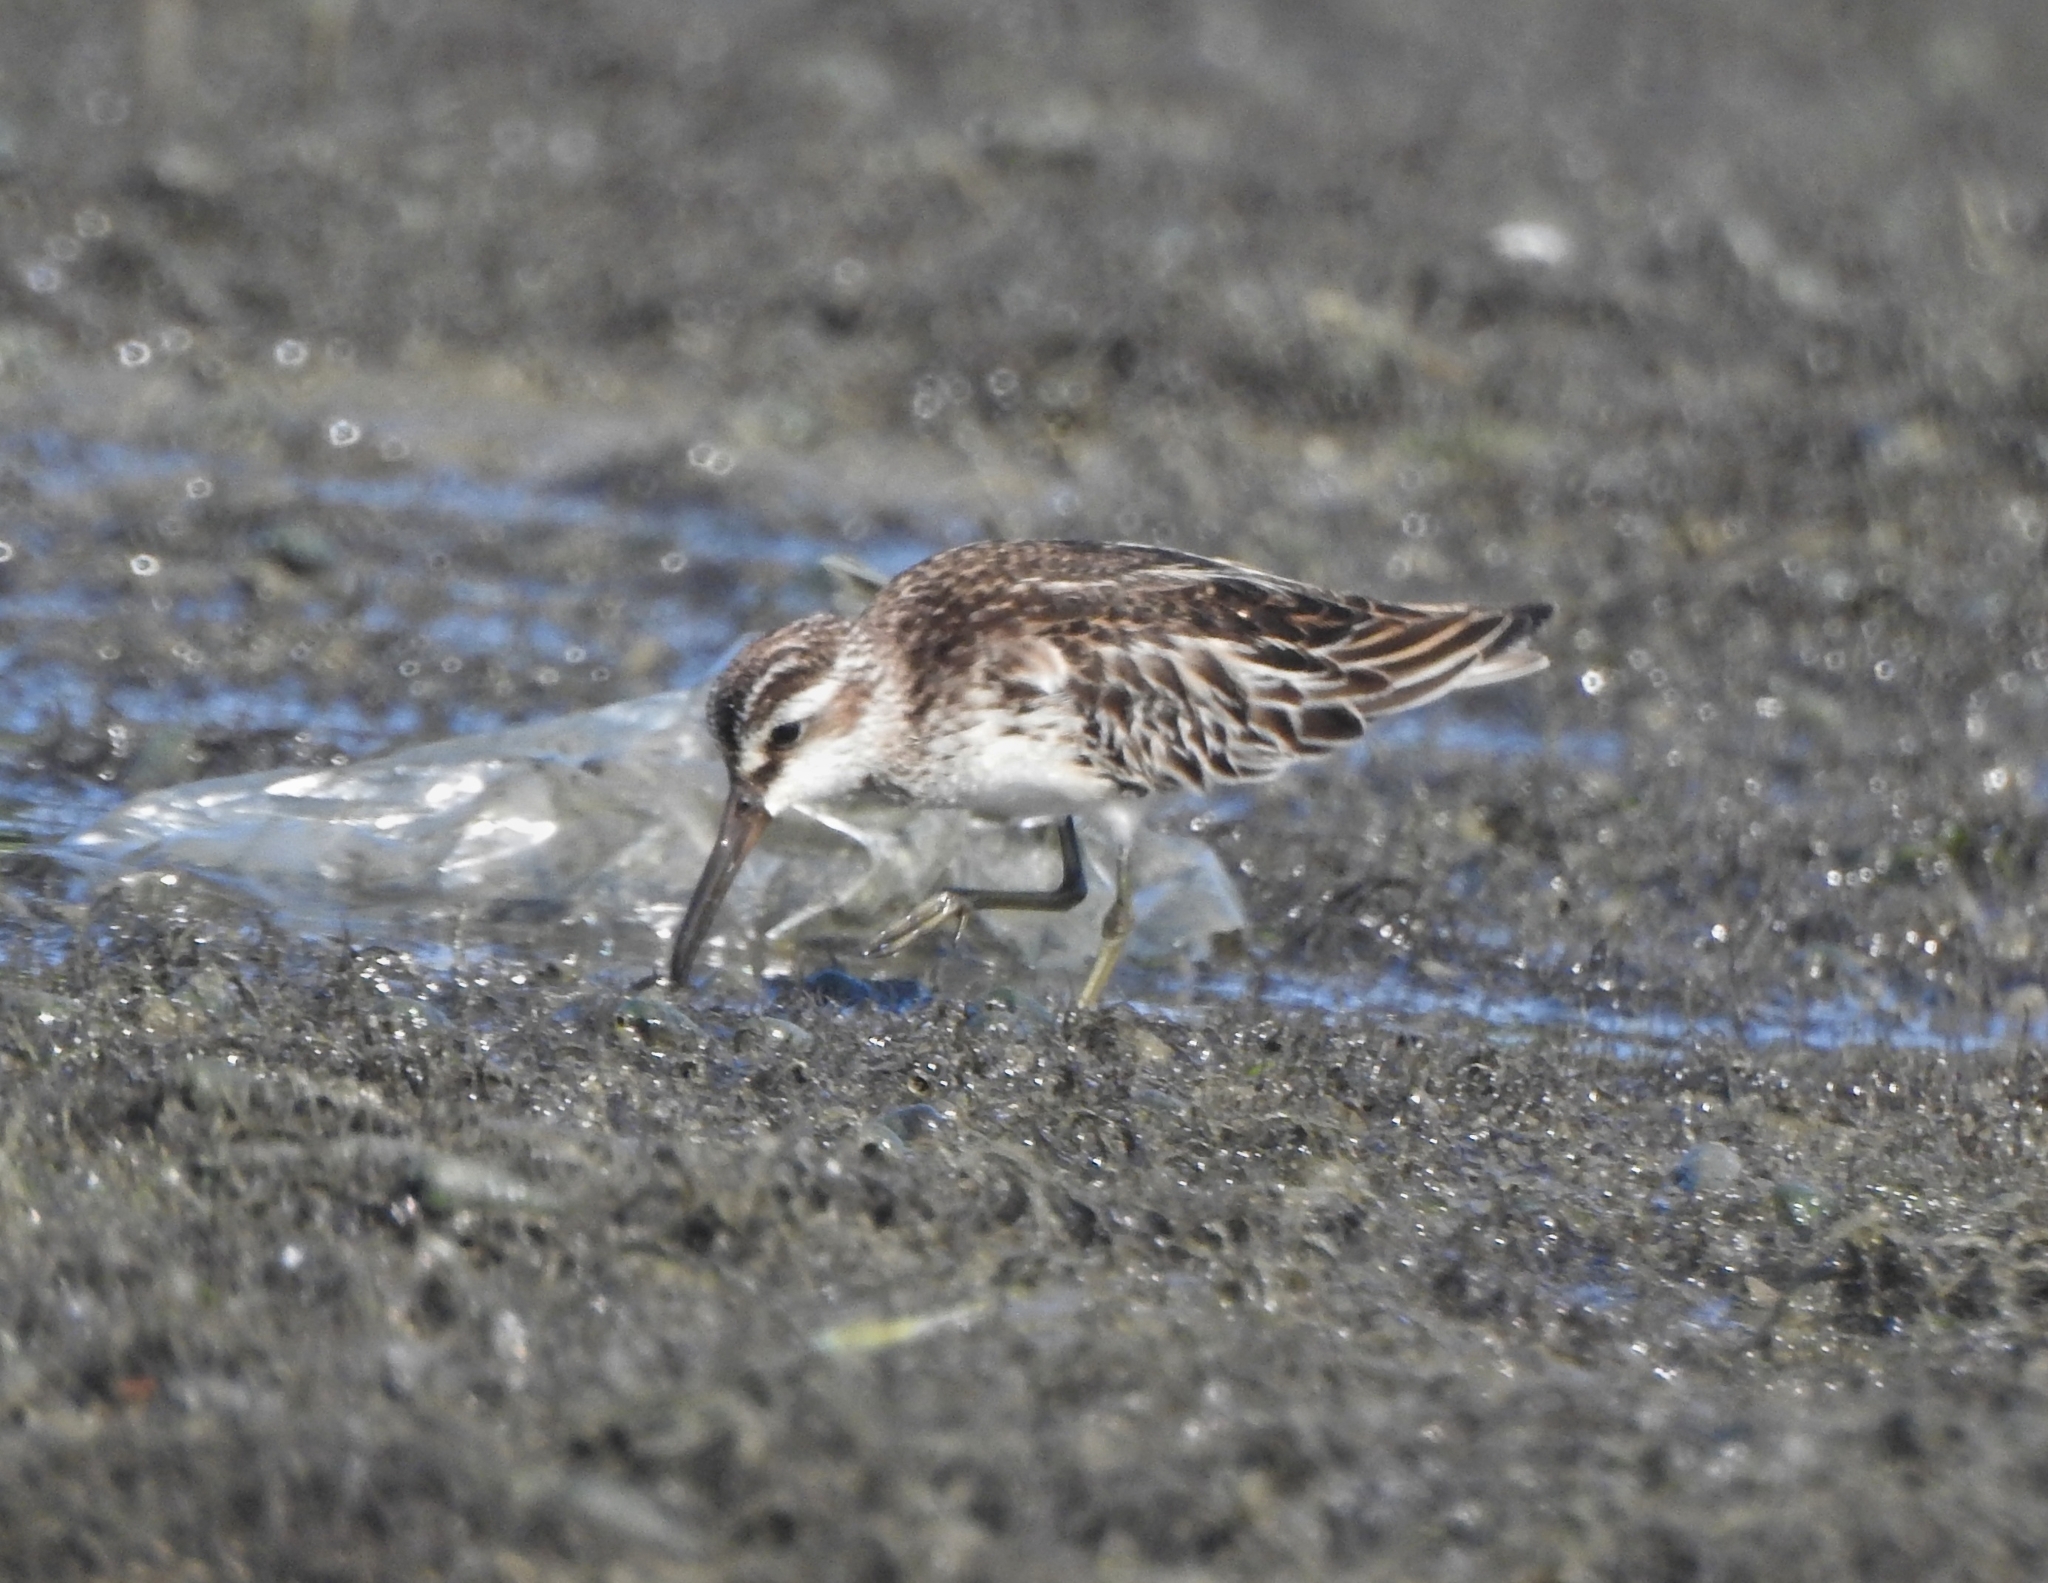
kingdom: Animalia
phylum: Chordata
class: Aves
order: Charadriiformes
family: Scolopacidae
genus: Calidris
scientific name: Calidris falcinellus
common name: Broad-billed sandpiper
